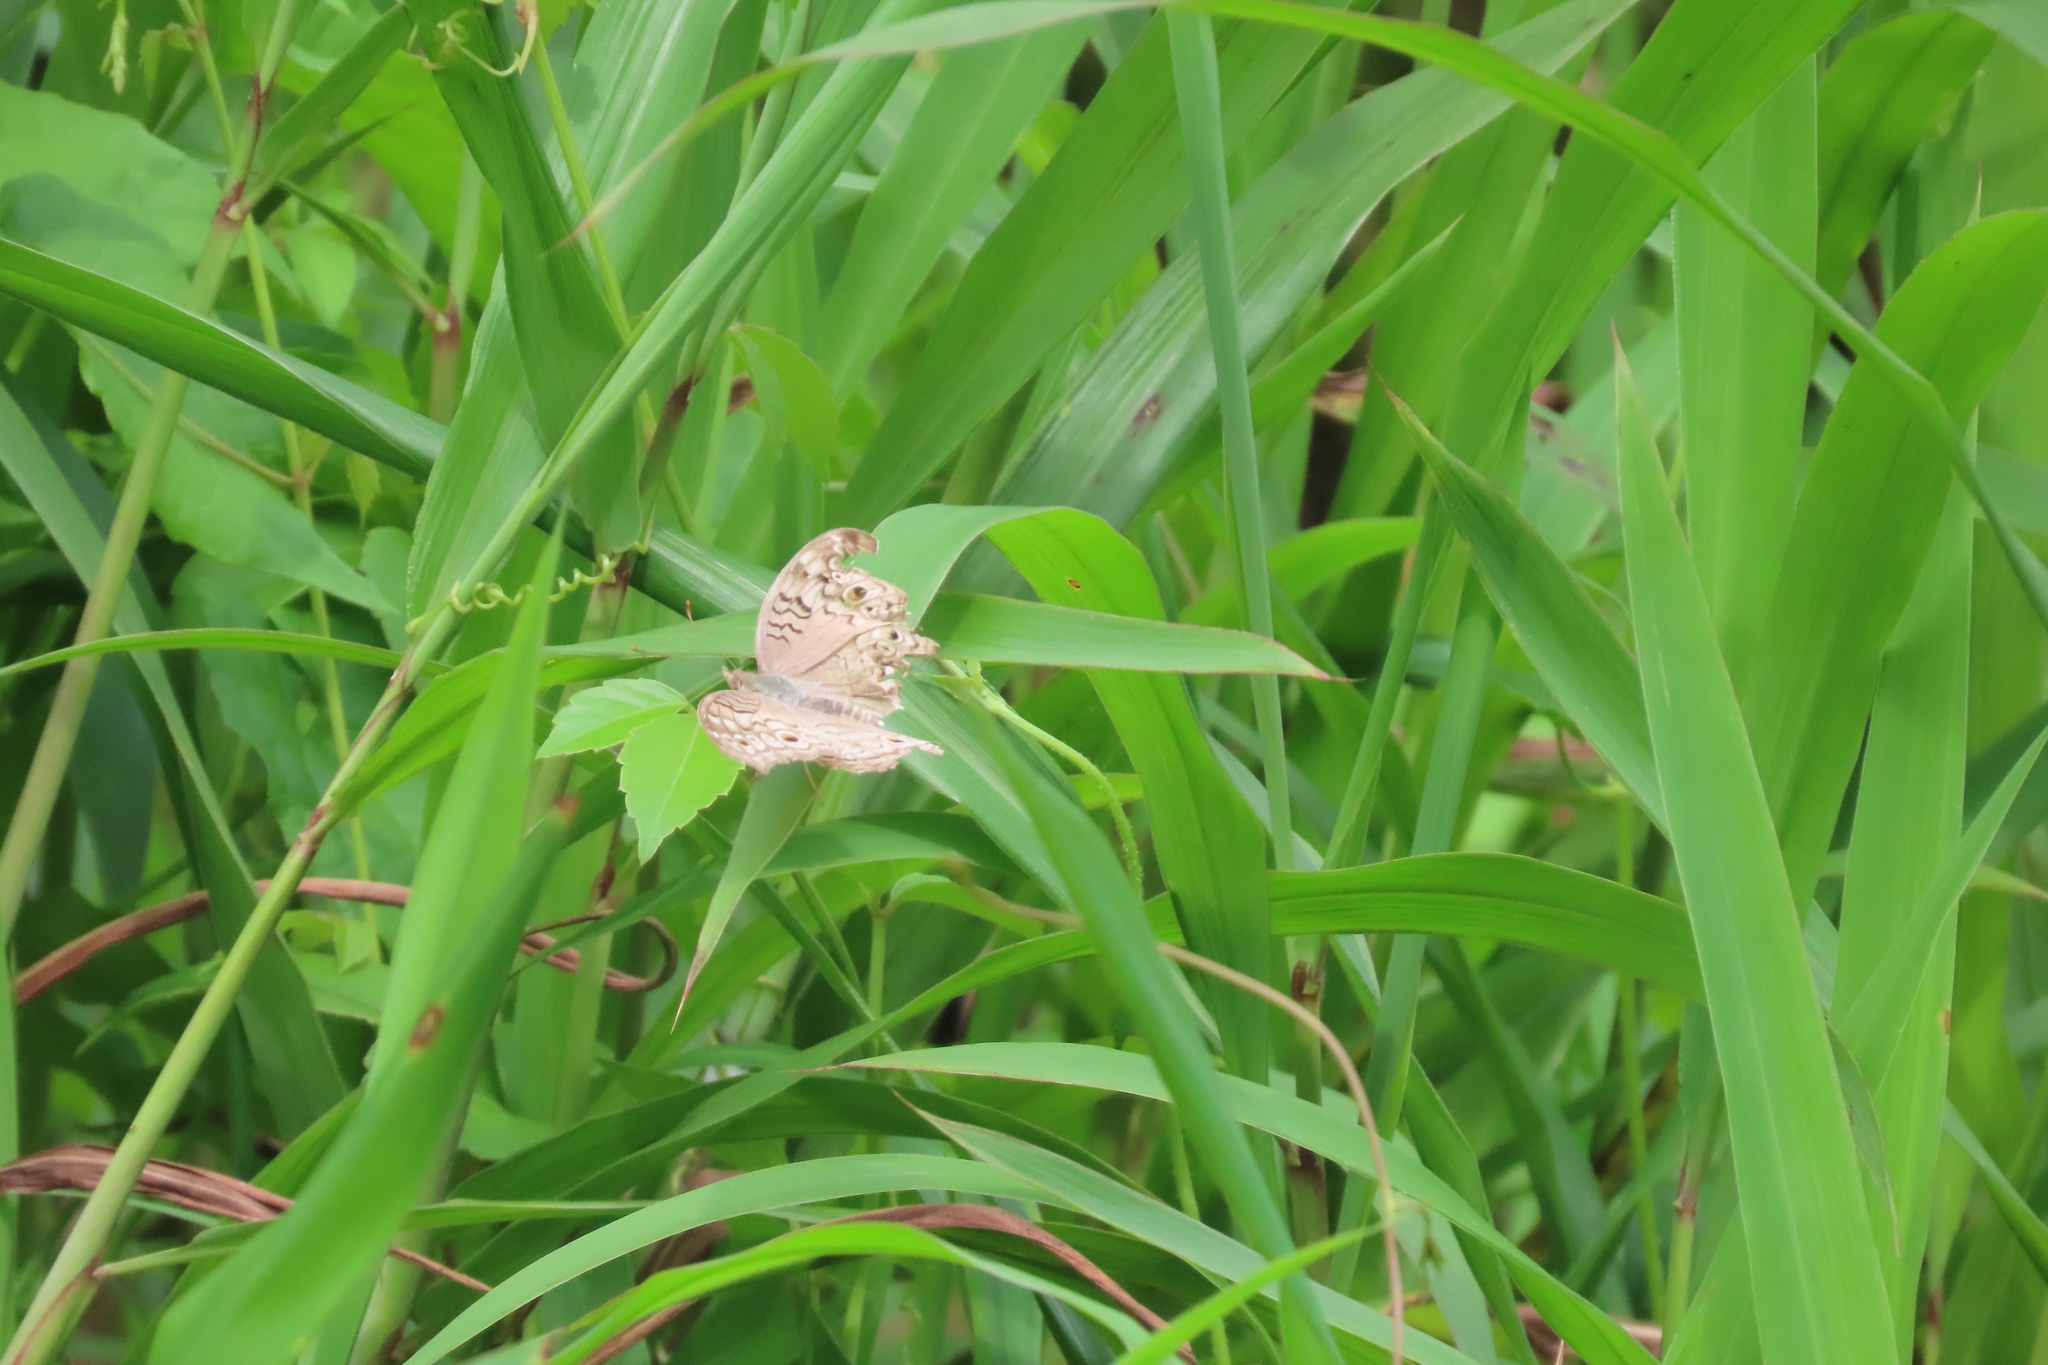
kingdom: Animalia
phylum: Arthropoda
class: Insecta
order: Lepidoptera
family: Nymphalidae
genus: Junonia
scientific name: Junonia atlites
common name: Grey pansy
